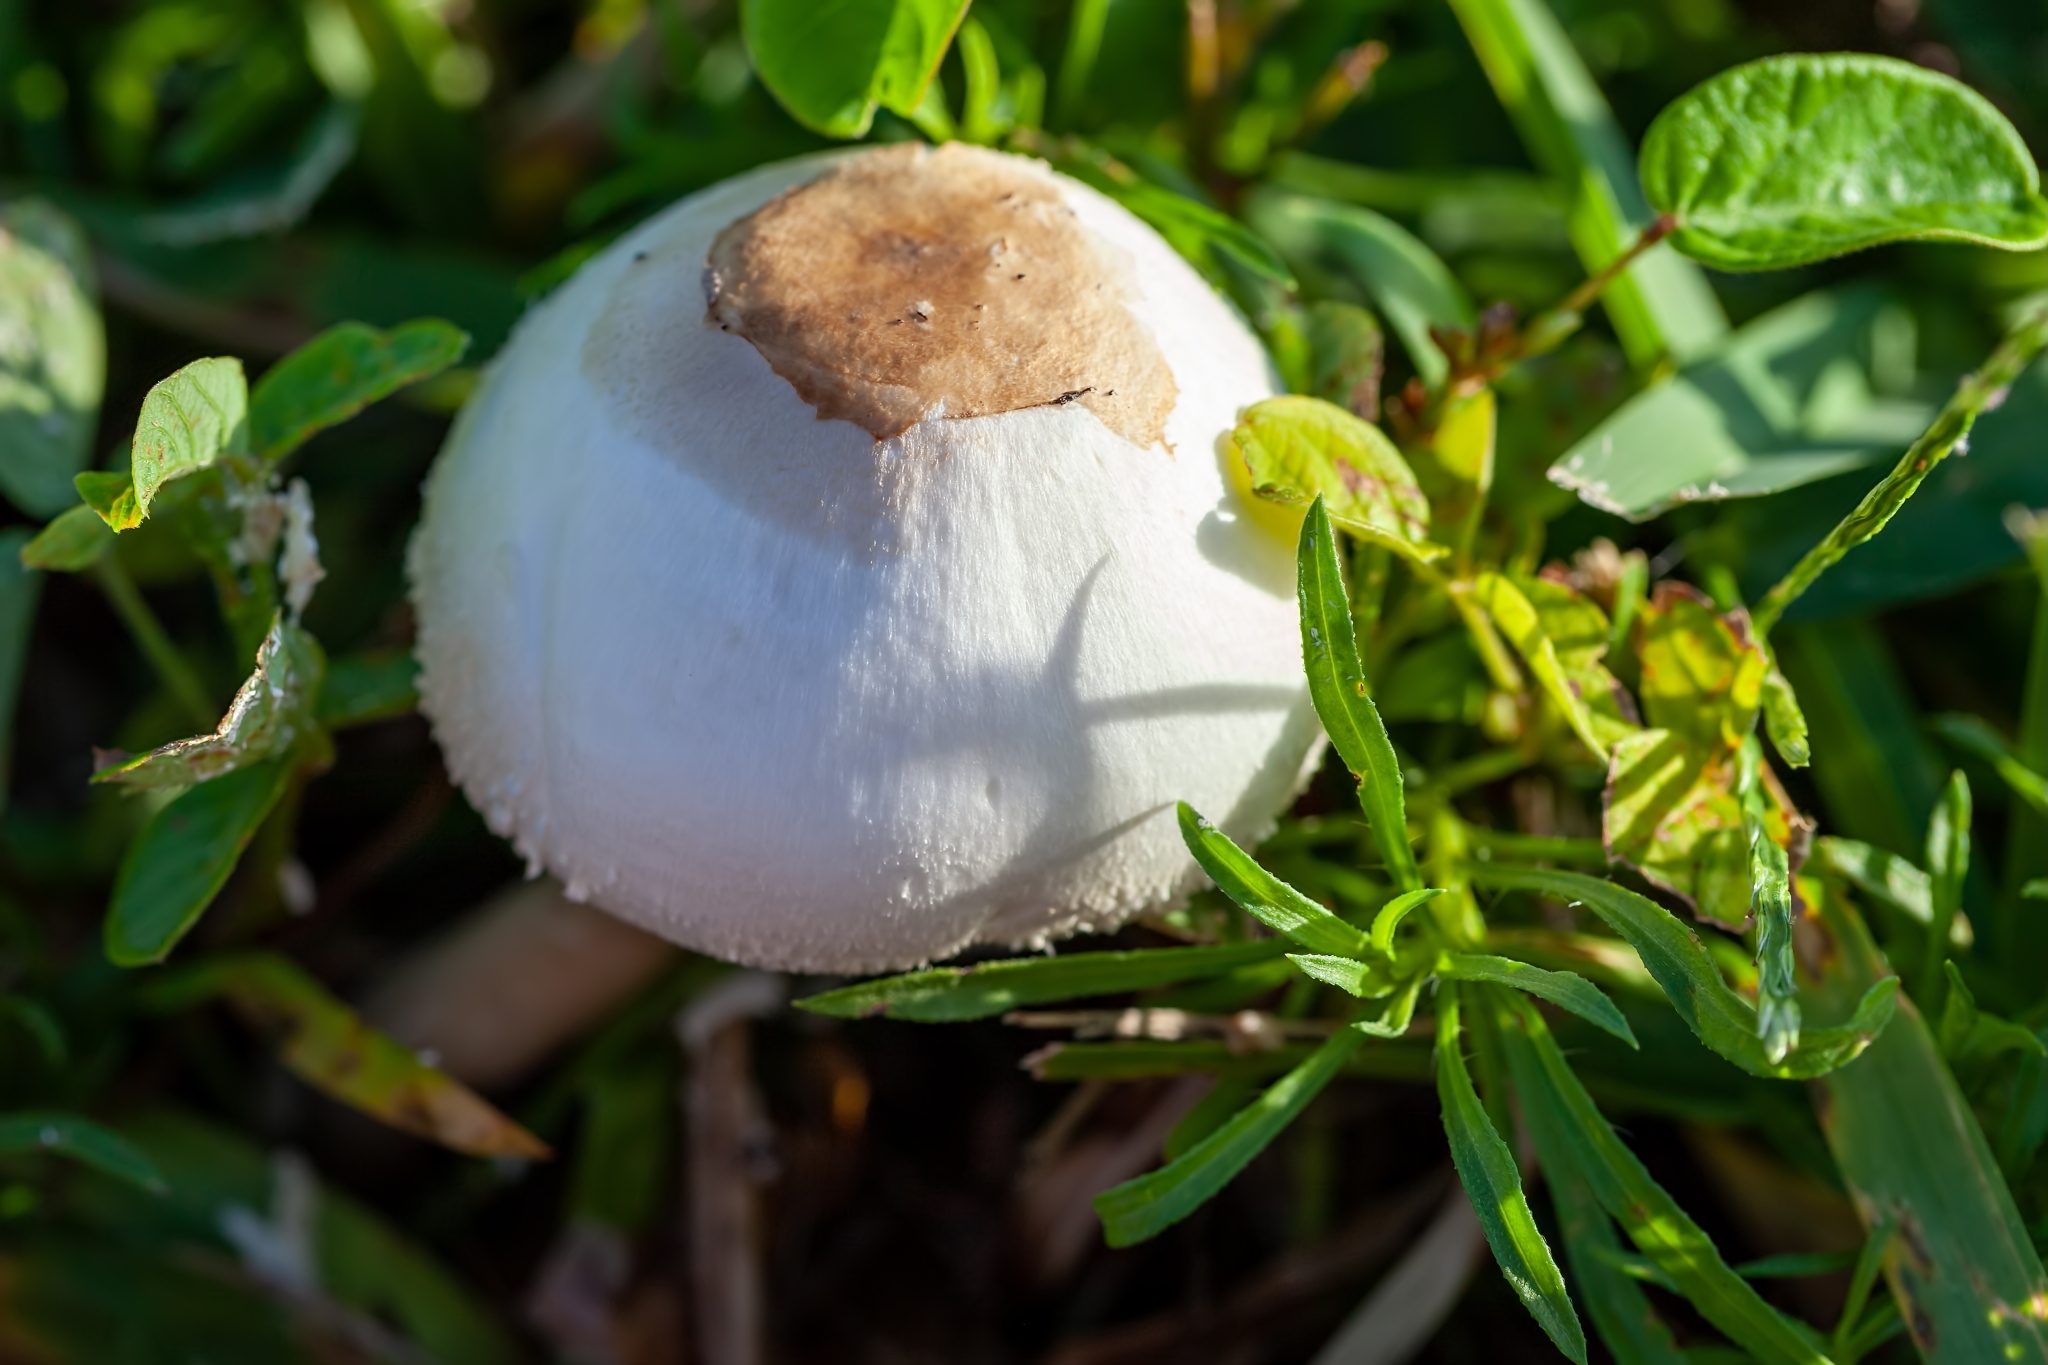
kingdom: Fungi
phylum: Basidiomycota
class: Agaricomycetes
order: Agaricales
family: Agaricaceae
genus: Chlorophyllum
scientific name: Chlorophyllum molybdites
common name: False parasol
